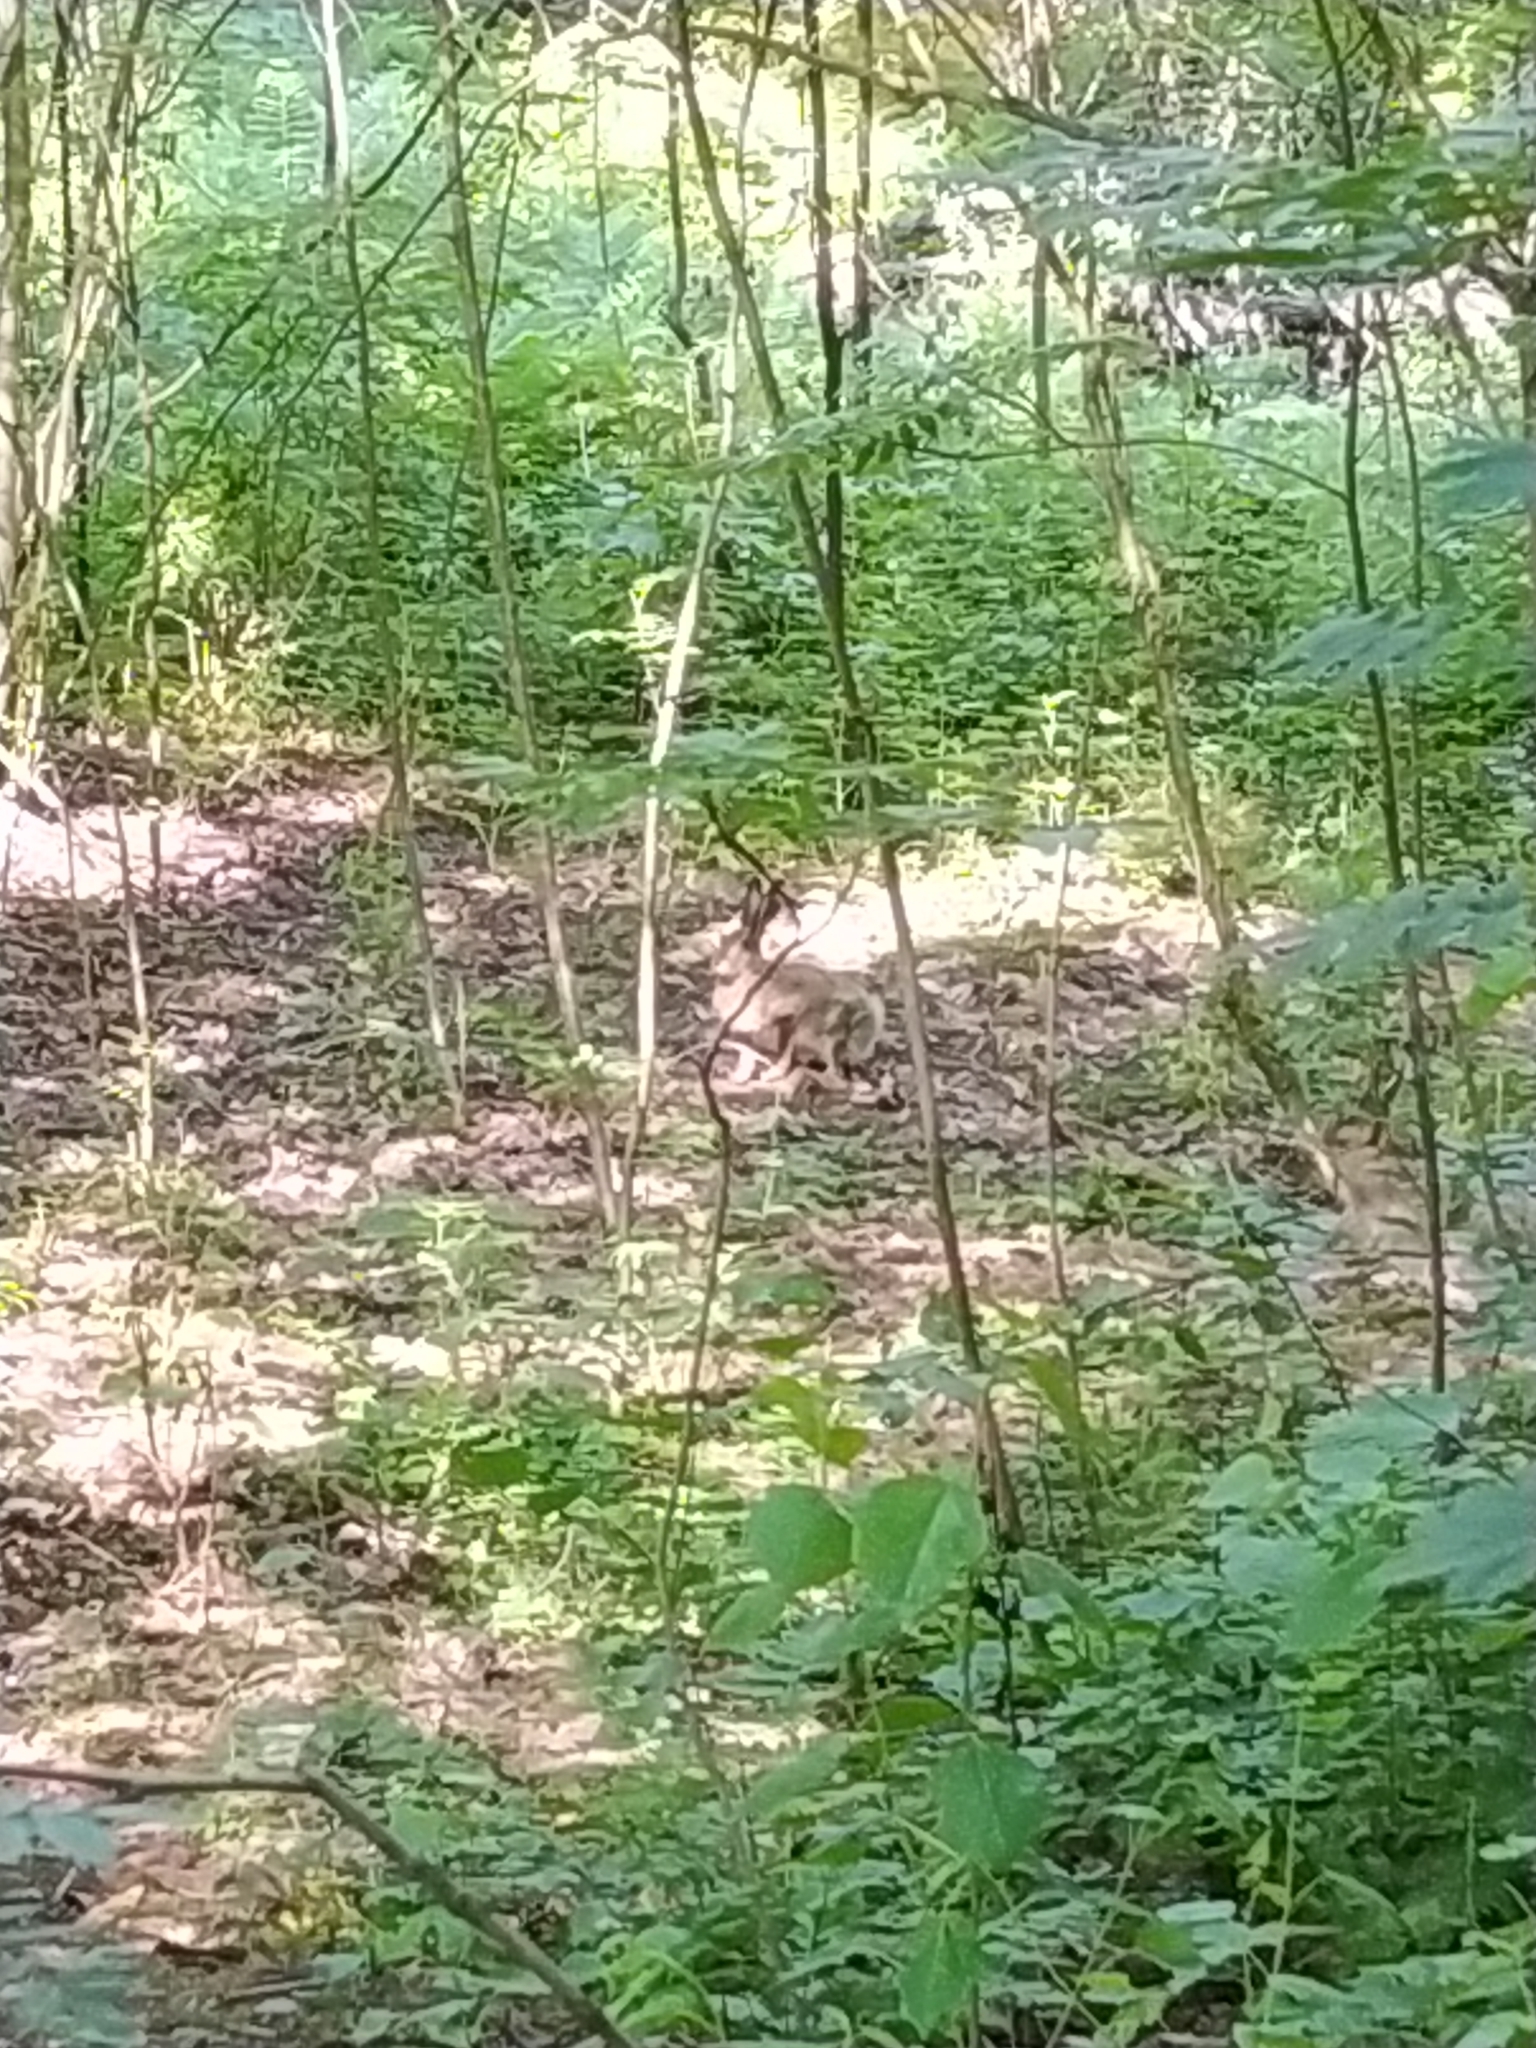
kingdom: Animalia
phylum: Chordata
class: Mammalia
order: Lagomorpha
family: Leporidae
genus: Lepus
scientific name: Lepus europaeus
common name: European hare
